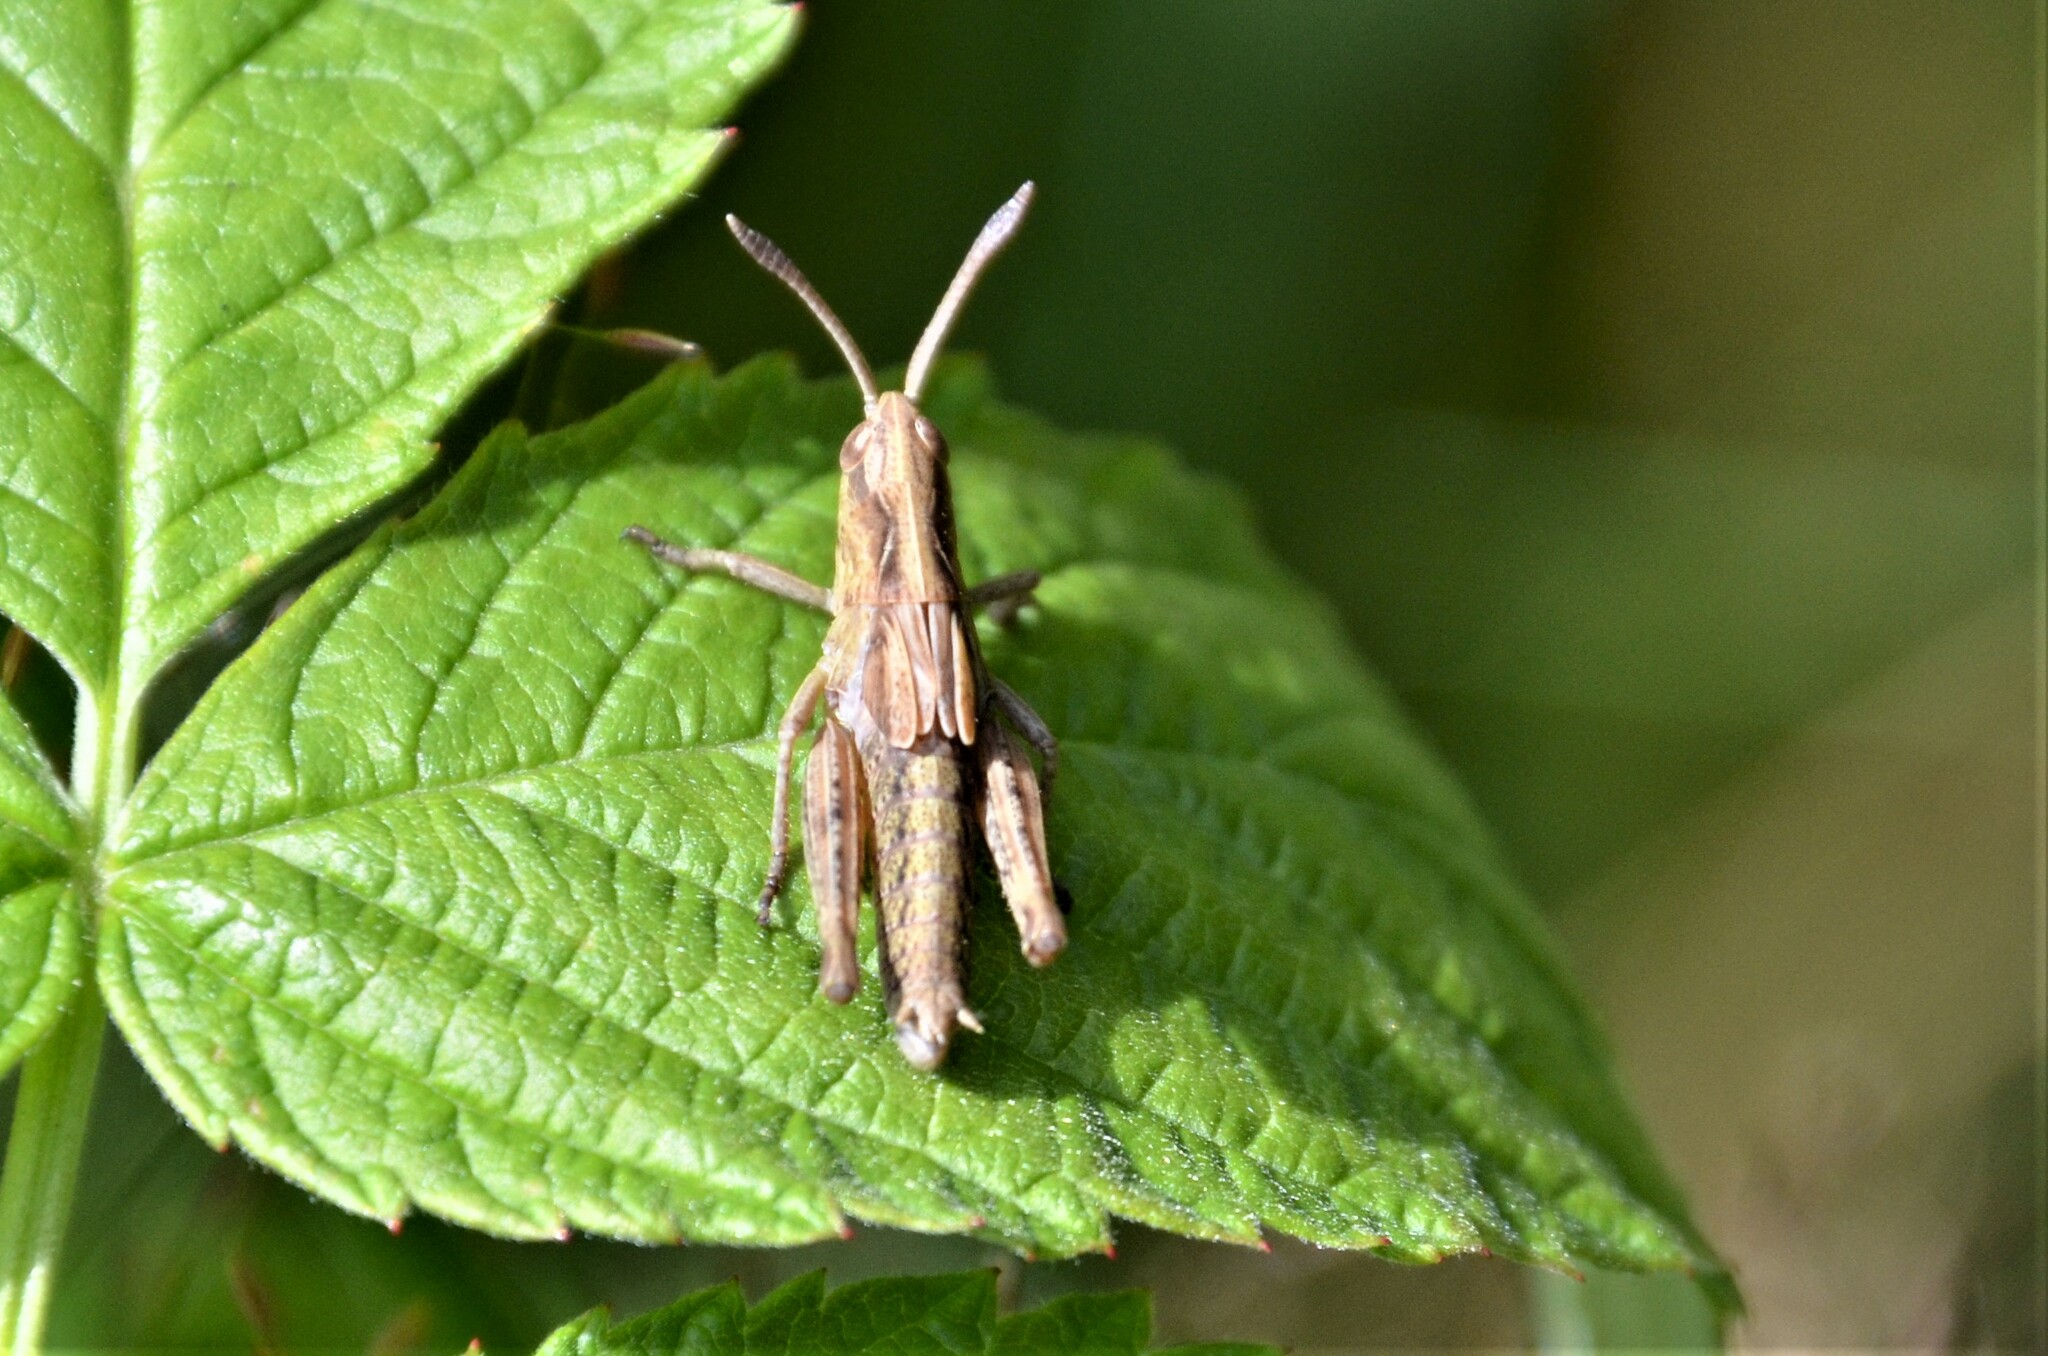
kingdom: Animalia
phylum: Arthropoda
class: Insecta
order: Orthoptera
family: Acrididae
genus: Gomphocerippus
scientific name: Gomphocerippus rufus
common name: Rufous grasshopper
